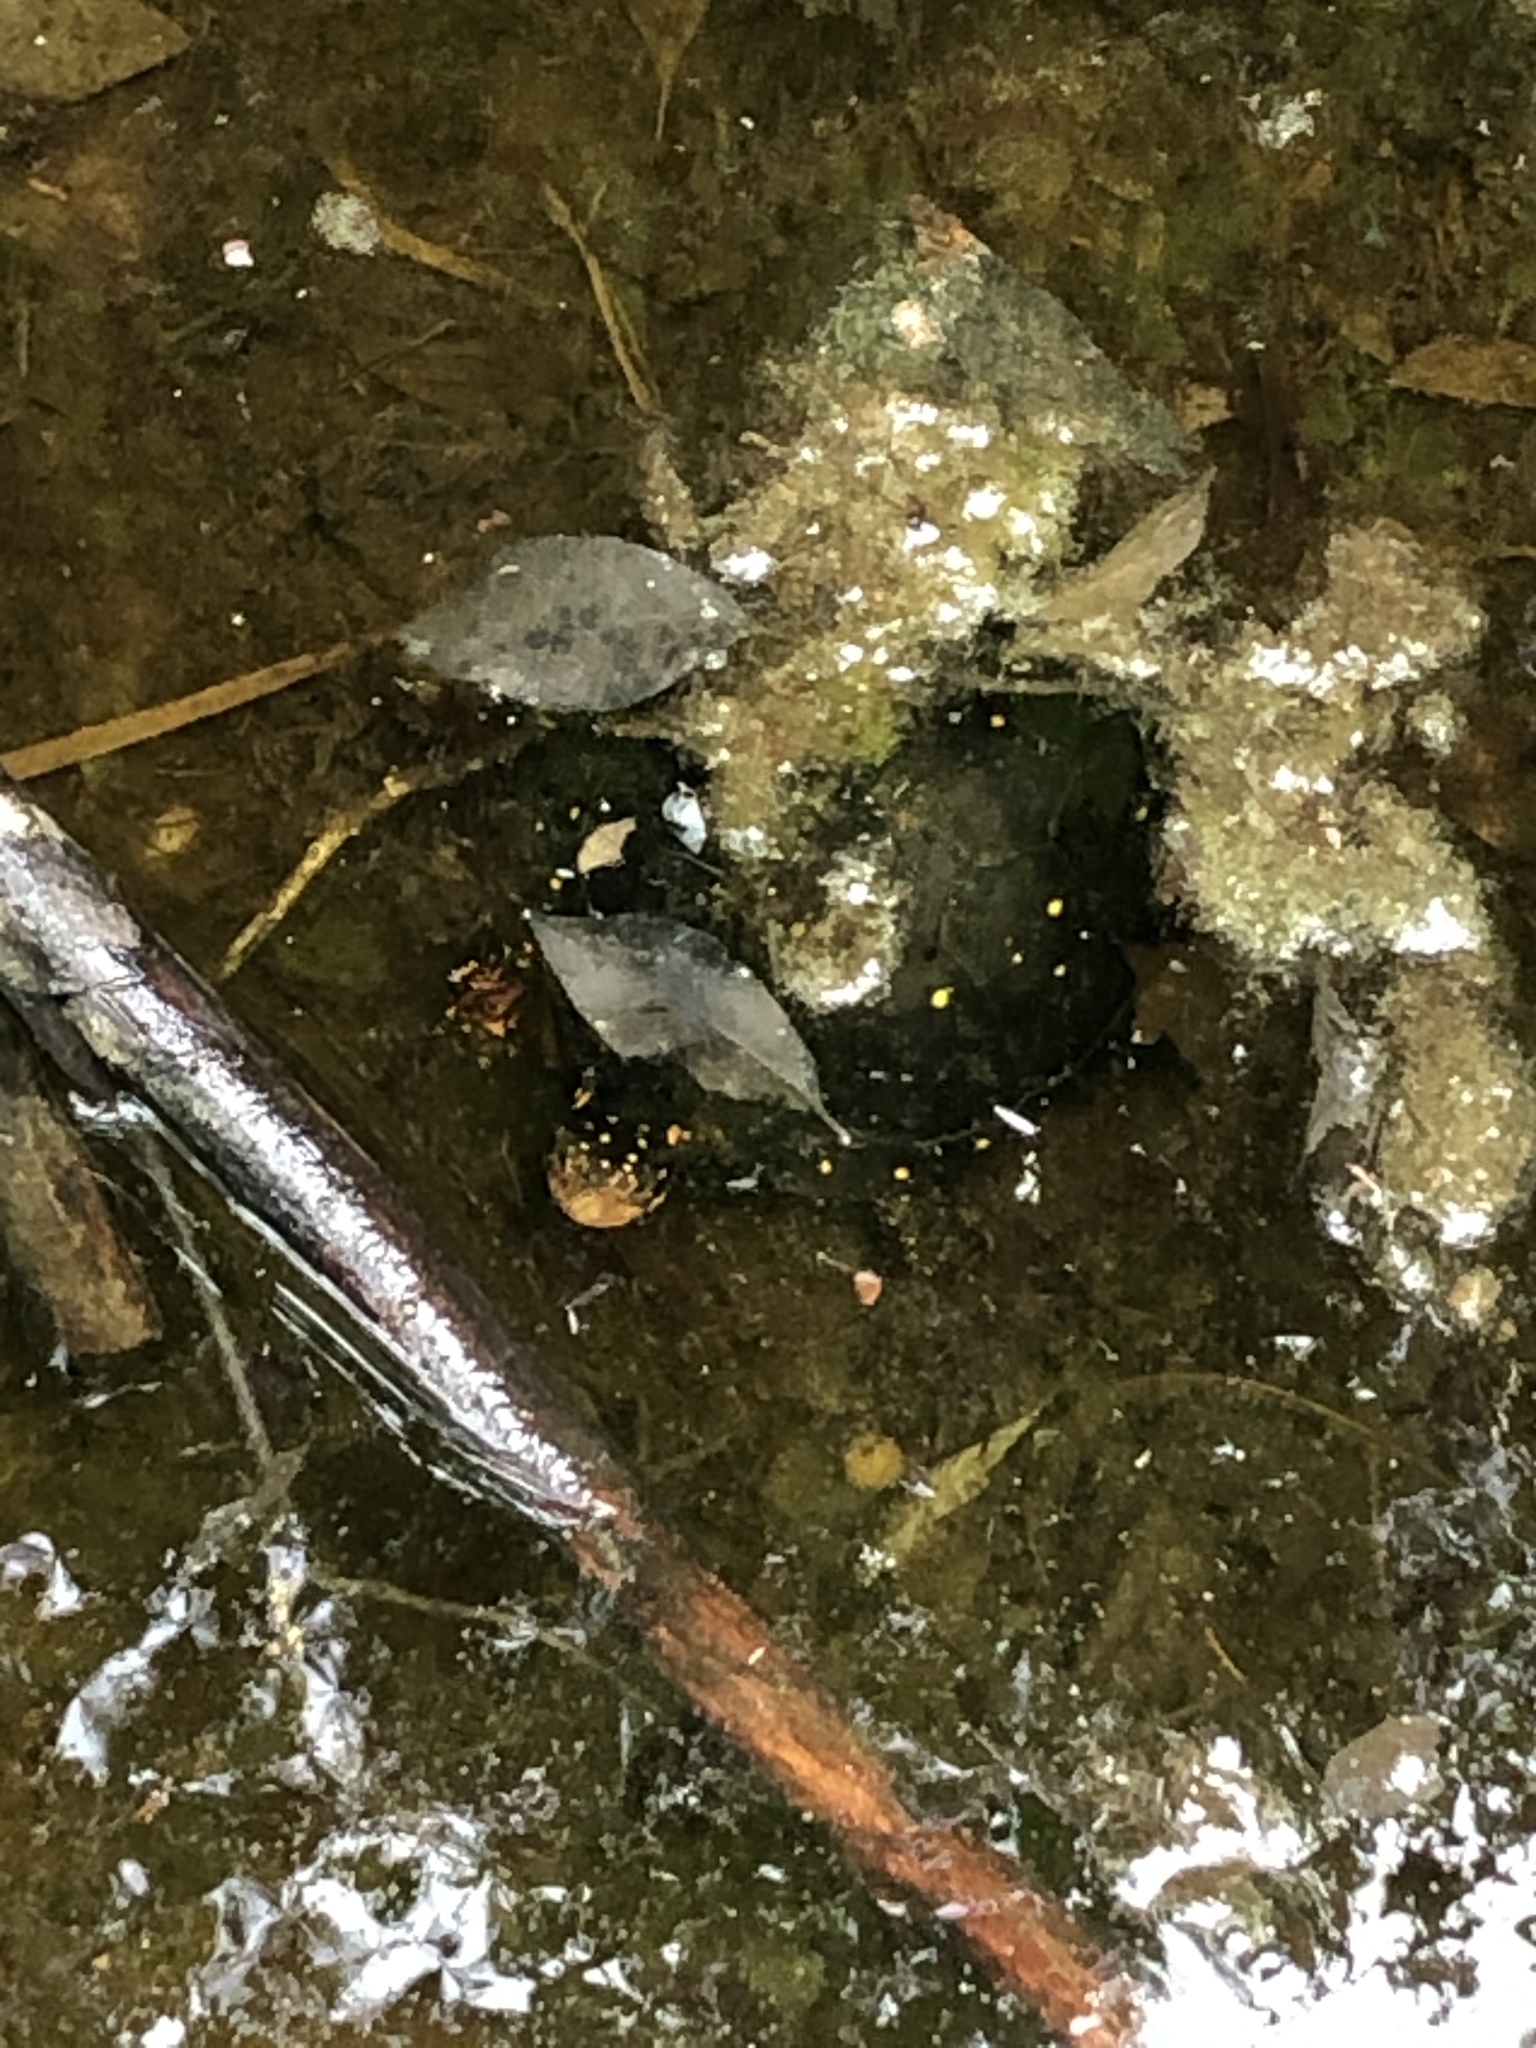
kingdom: Animalia
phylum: Chordata
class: Testudines
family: Emydidae
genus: Clemmys
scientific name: Clemmys guttata
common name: Spotted turtle
